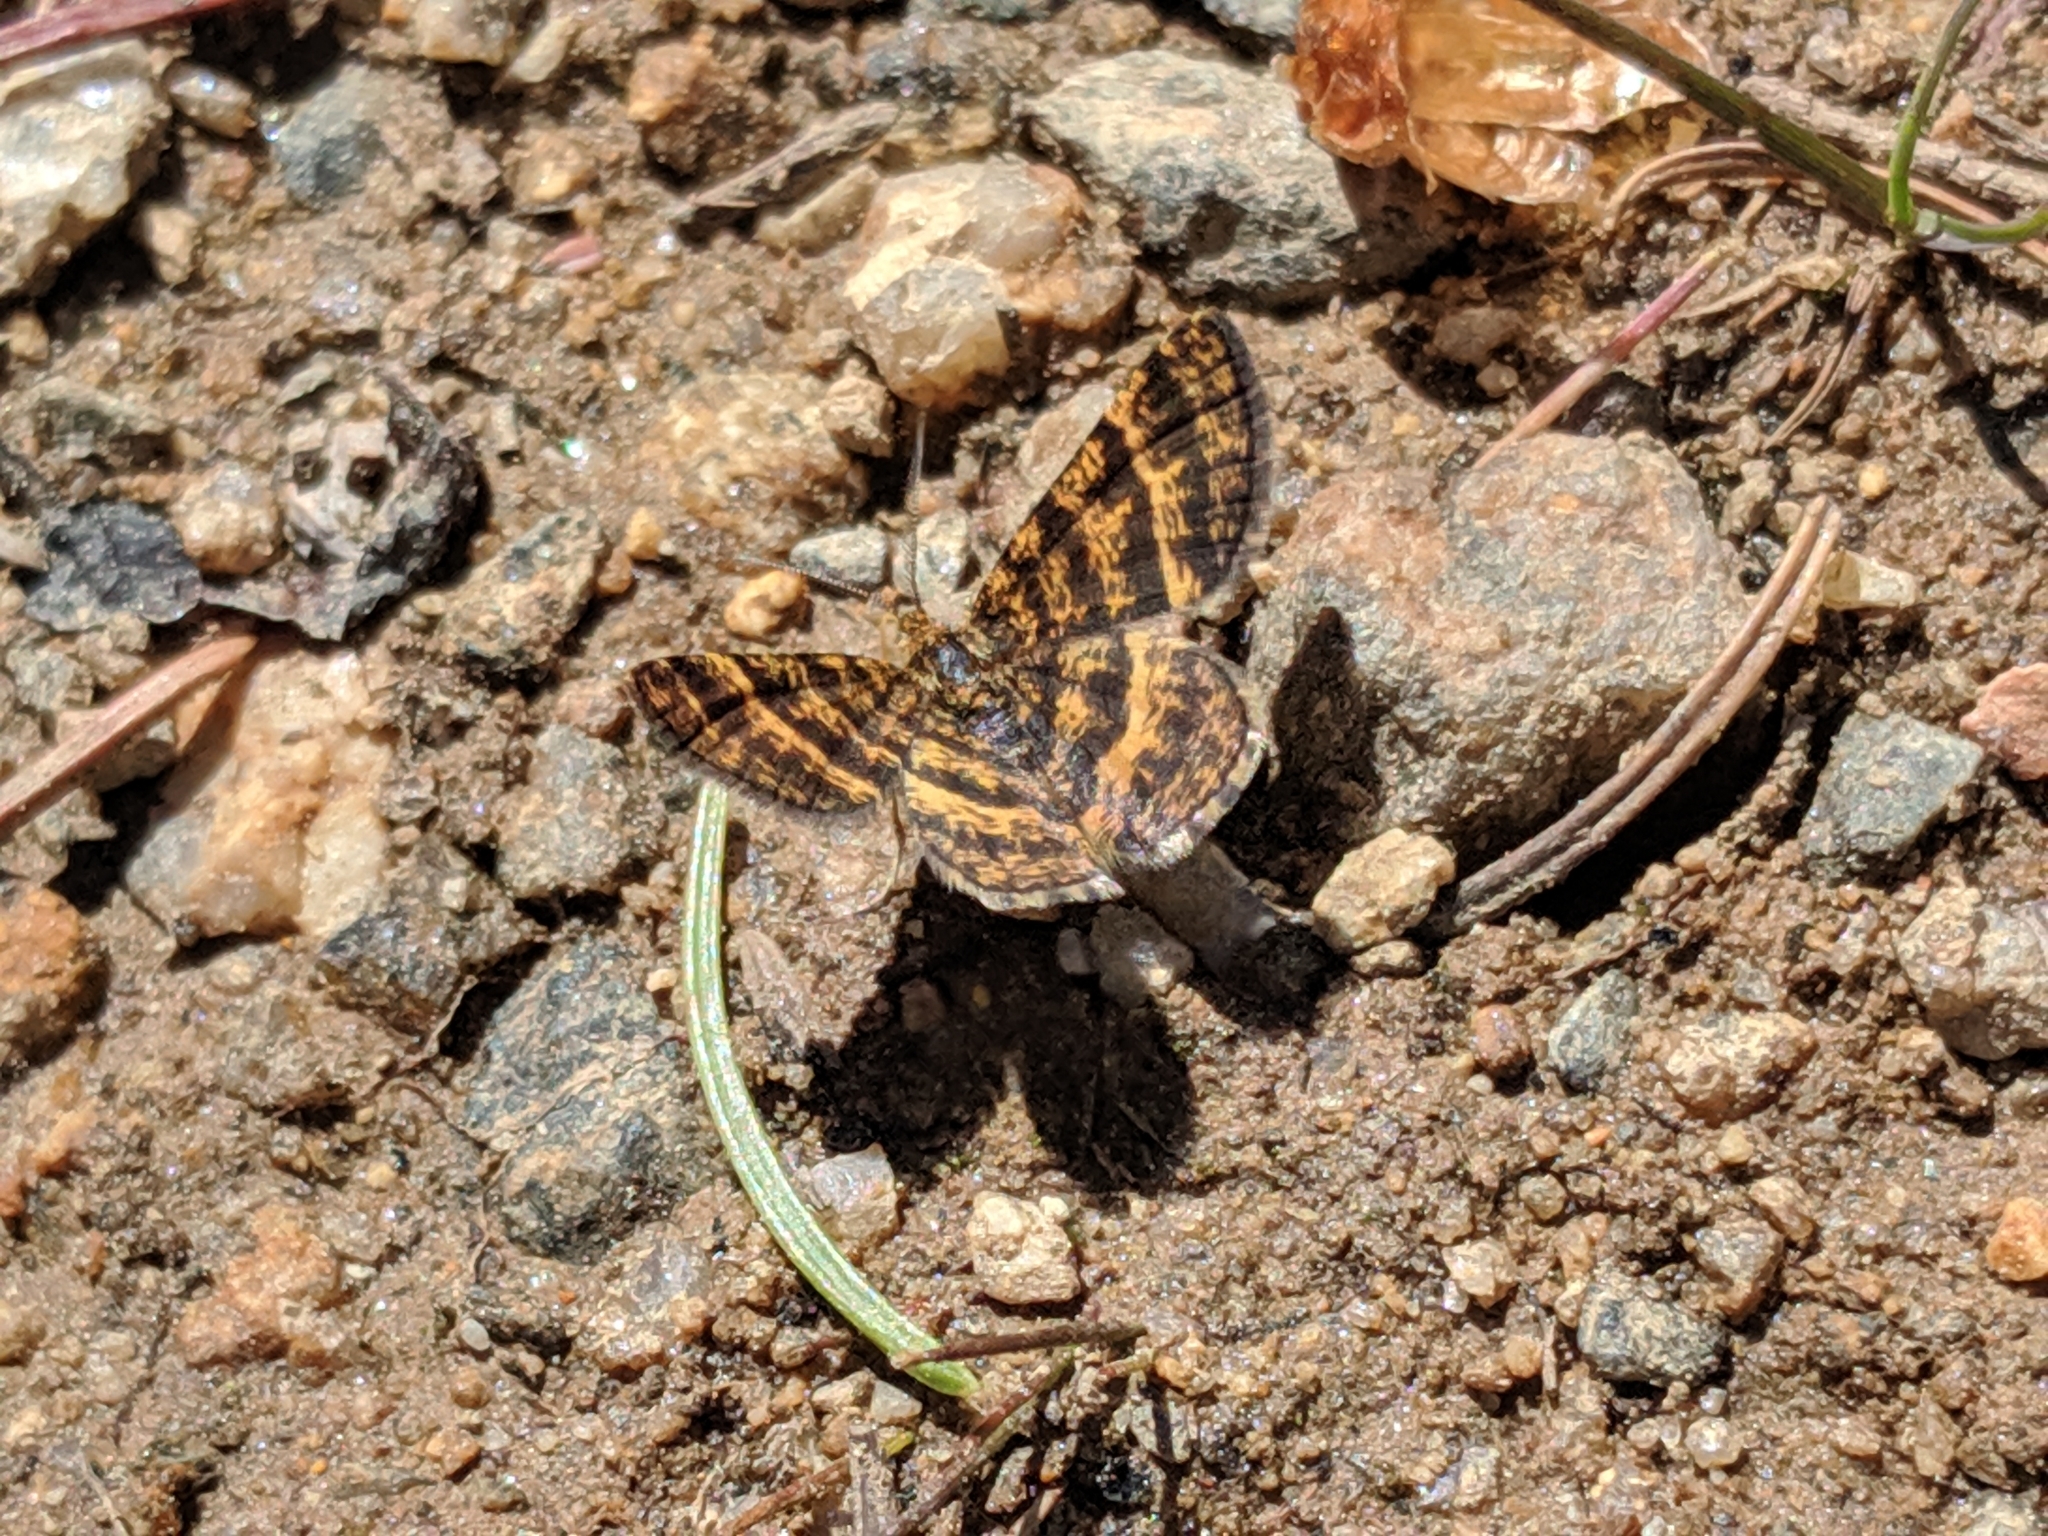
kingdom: Animalia
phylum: Arthropoda
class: Insecta
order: Lepidoptera
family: Geometridae
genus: Macaria
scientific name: Macaria truncataria
